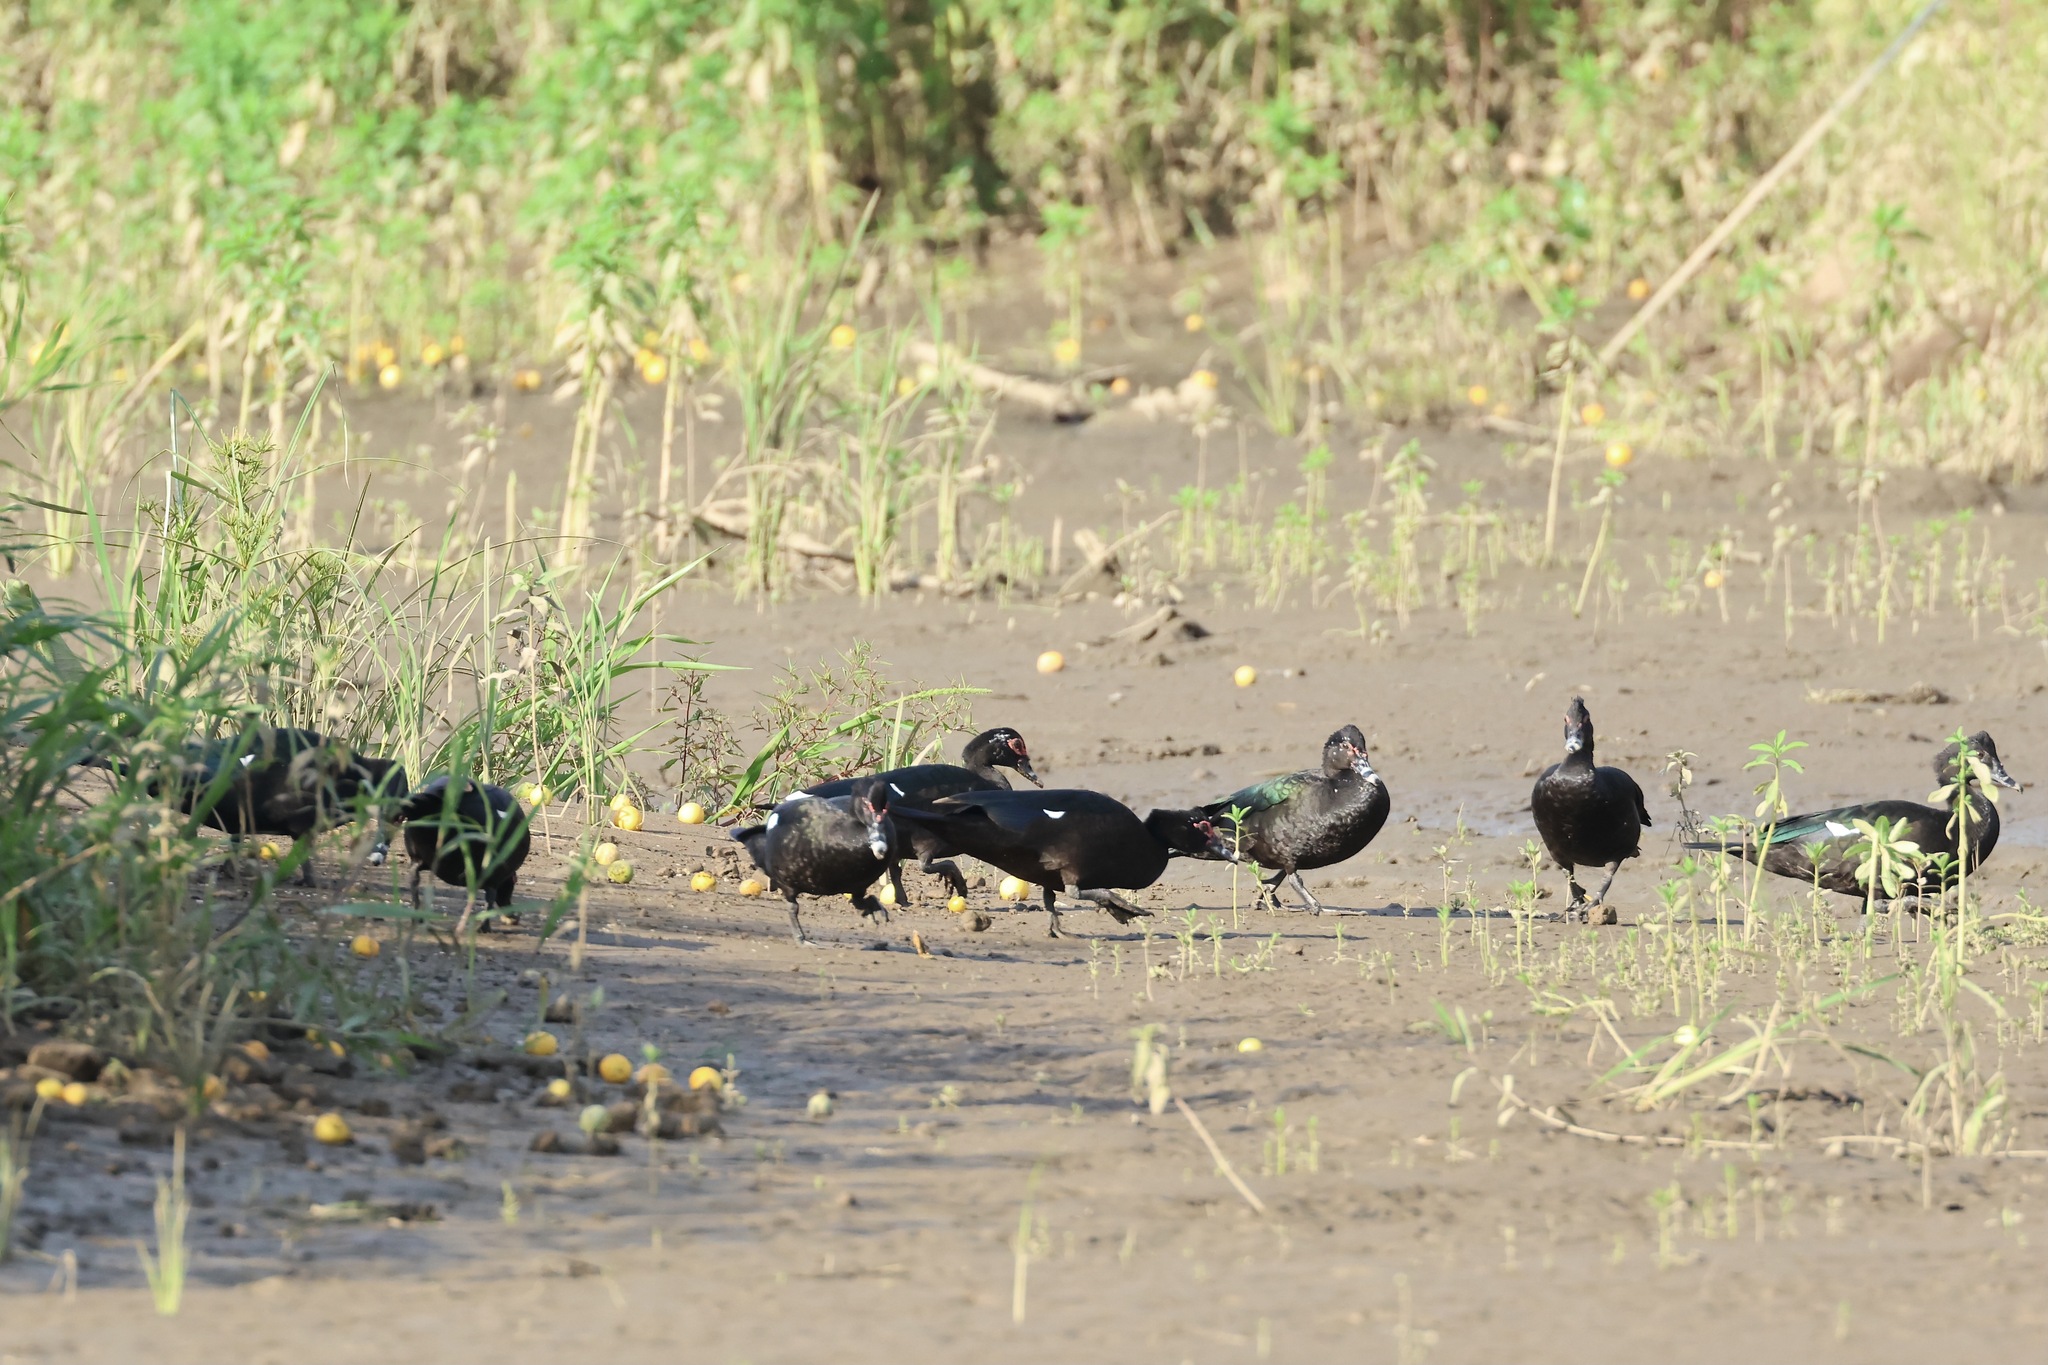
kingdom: Animalia
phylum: Chordata
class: Aves
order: Anseriformes
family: Anatidae
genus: Cairina
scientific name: Cairina moschata
